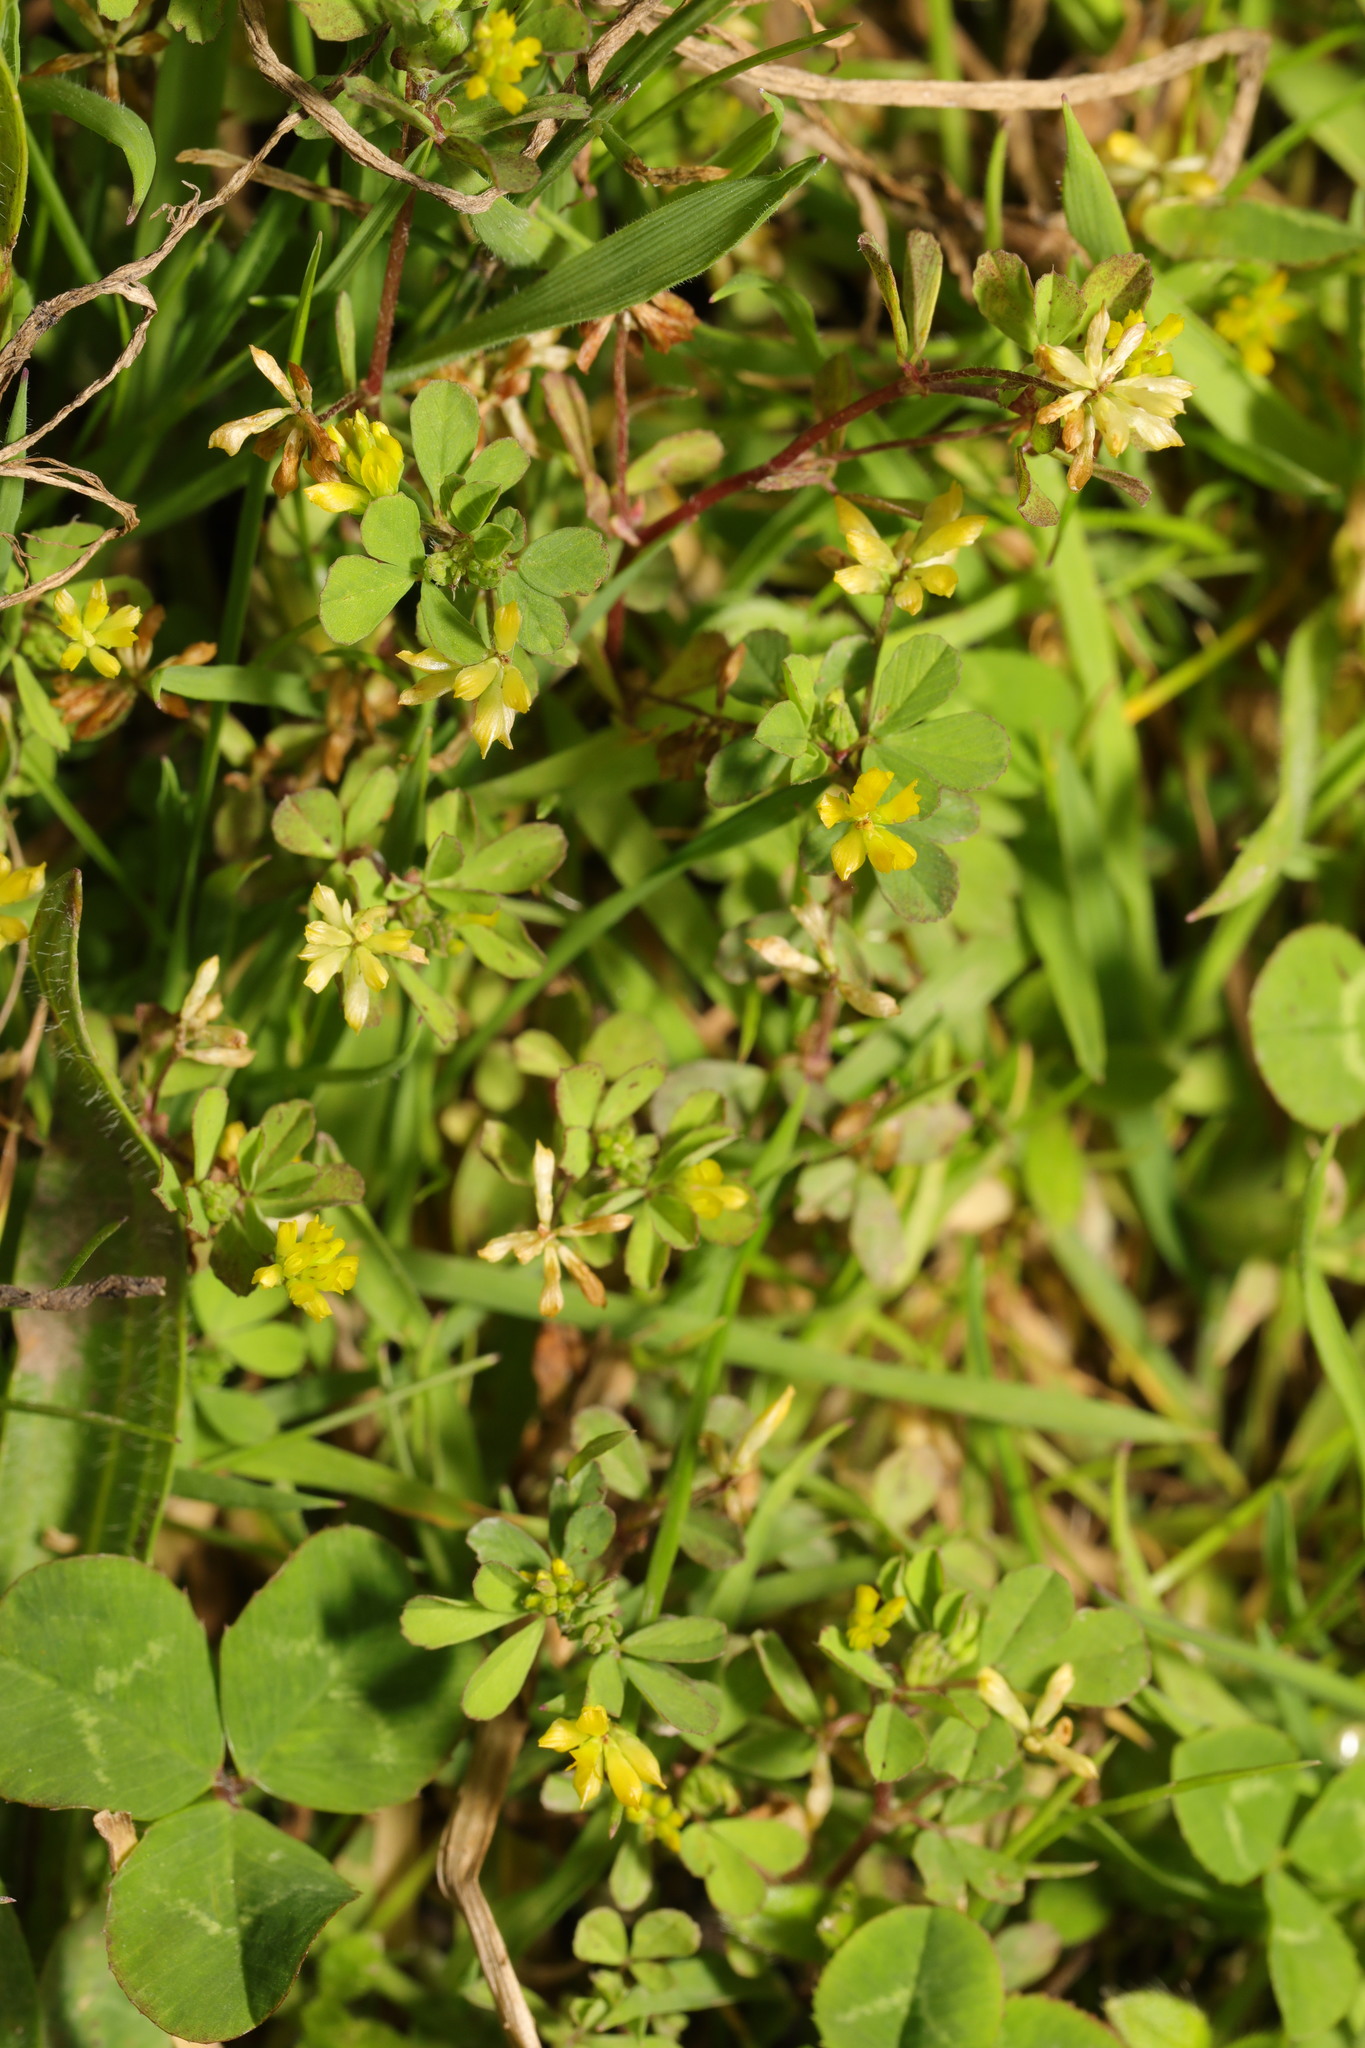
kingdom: Plantae
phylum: Tracheophyta
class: Magnoliopsida
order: Fabales
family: Fabaceae
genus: Trifolium
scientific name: Trifolium dubium
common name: Suckling clover
